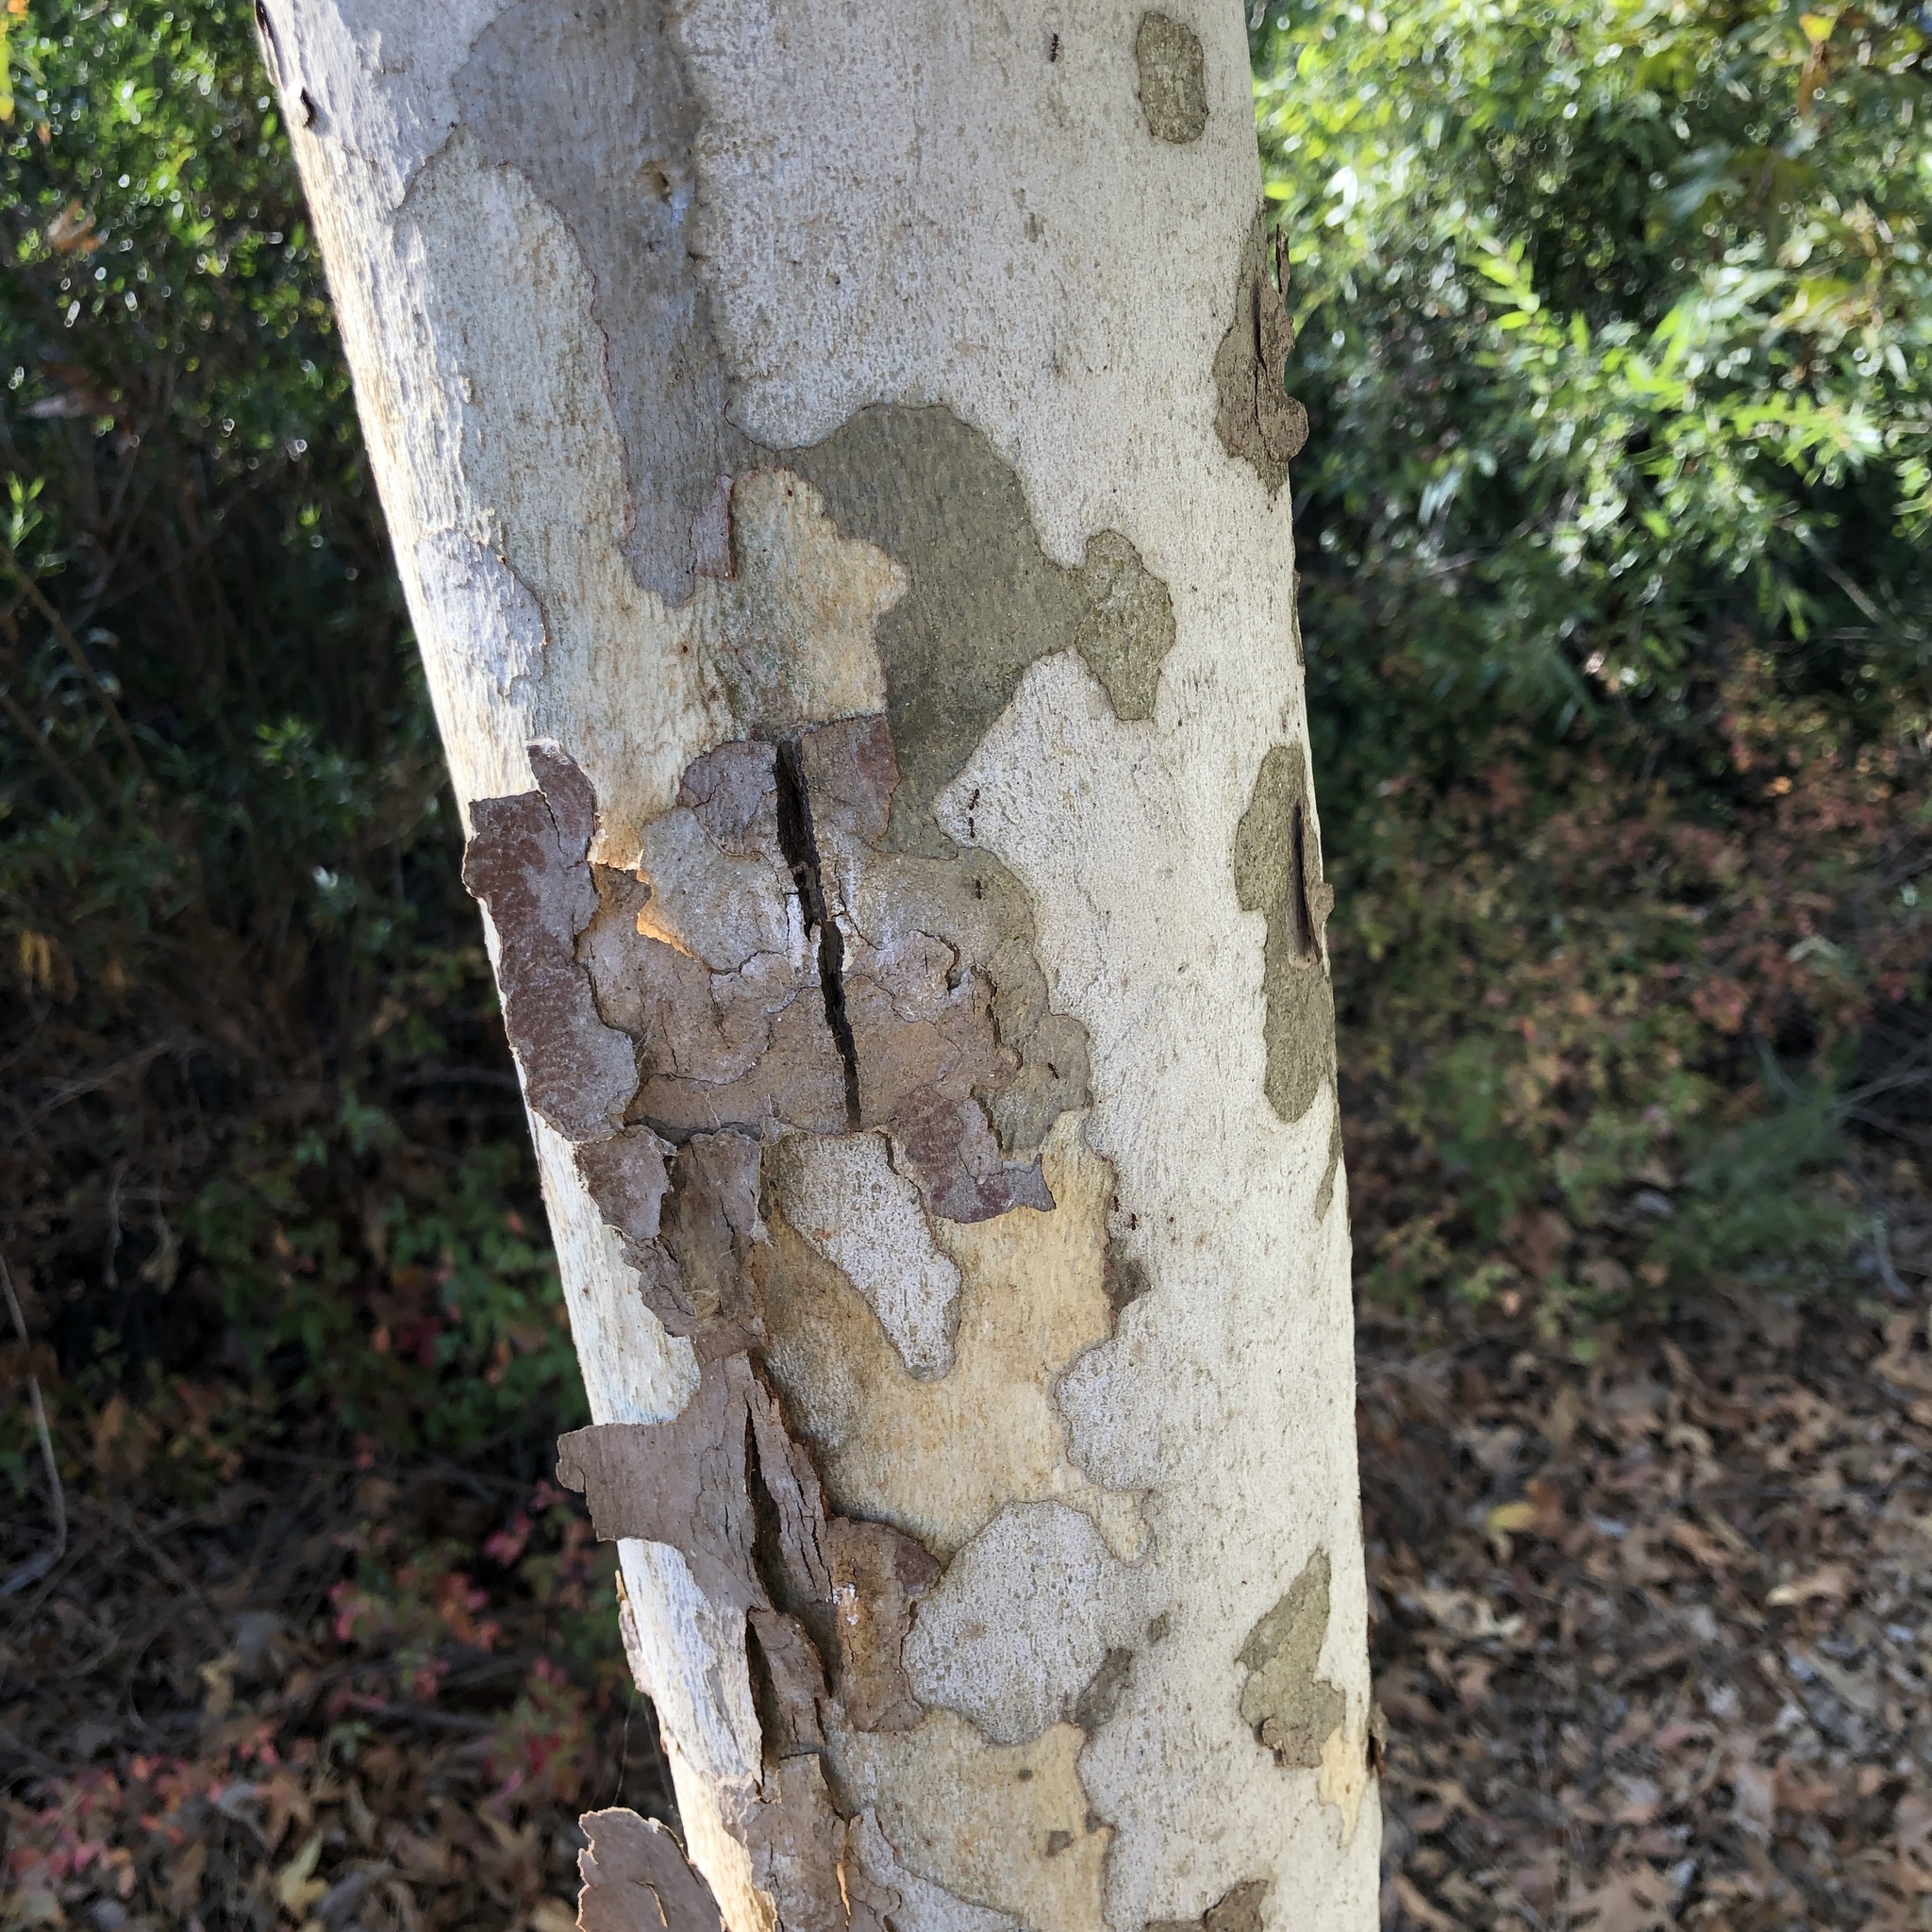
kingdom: Plantae
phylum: Tracheophyta
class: Magnoliopsida
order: Proteales
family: Platanaceae
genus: Platanus
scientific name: Platanus racemosa
